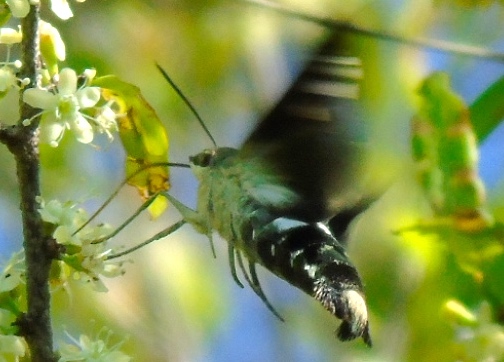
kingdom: Animalia
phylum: Arthropoda
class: Insecta
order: Lepidoptera
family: Sphingidae
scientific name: Sphingidae
